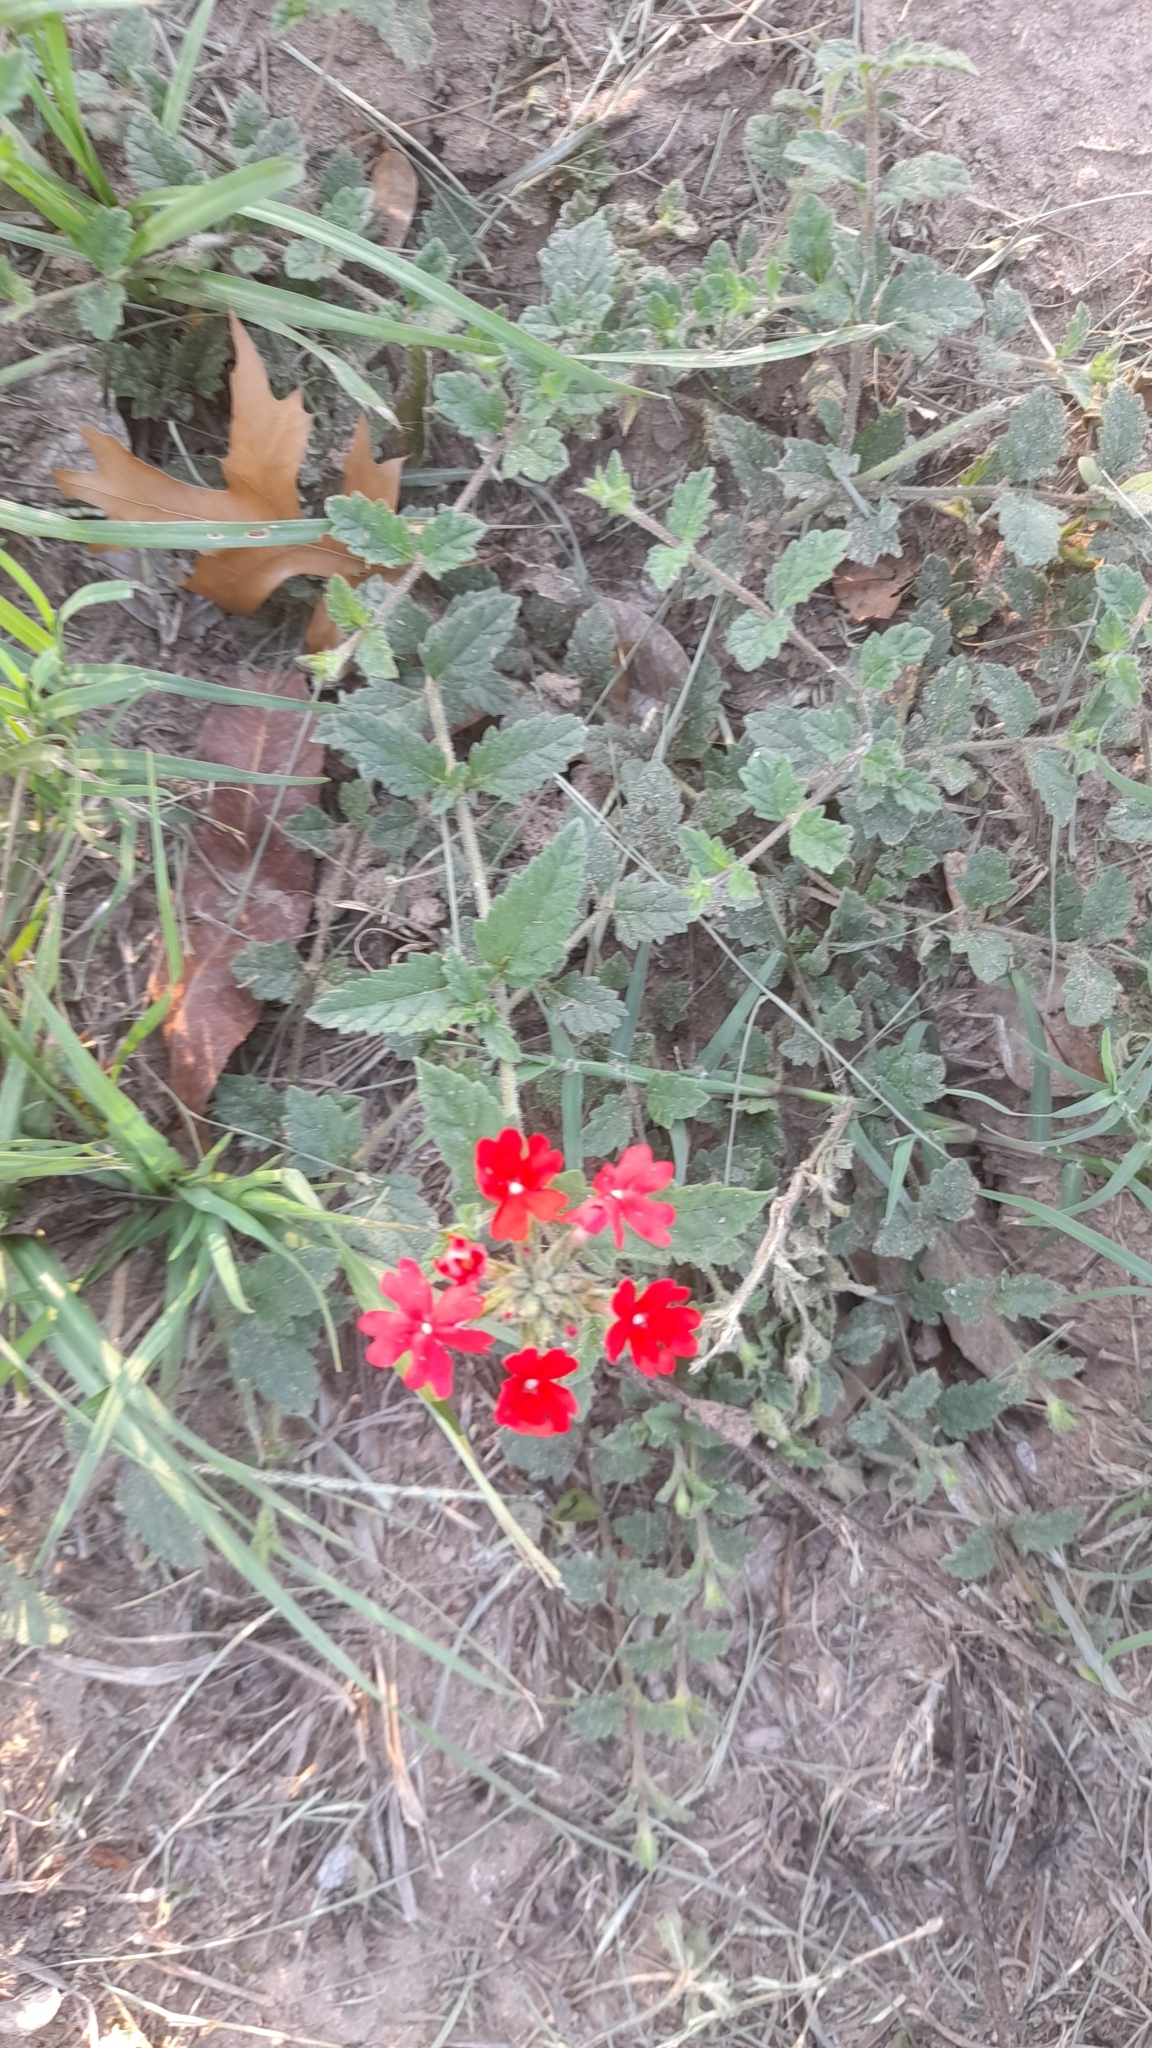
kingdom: Plantae
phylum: Tracheophyta
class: Magnoliopsida
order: Lamiales
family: Verbenaceae
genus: Verbena
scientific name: Verbena peruviana
